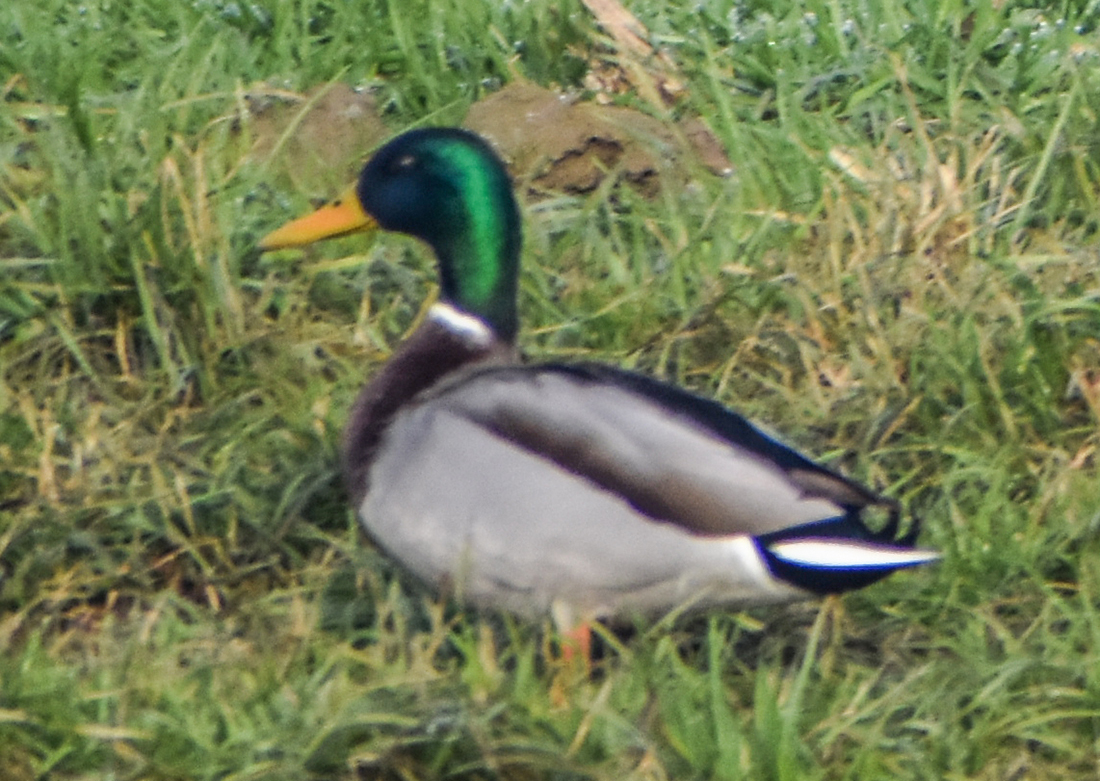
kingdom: Animalia
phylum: Chordata
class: Aves
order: Anseriformes
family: Anatidae
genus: Anas
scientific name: Anas platyrhynchos
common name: Mallard
